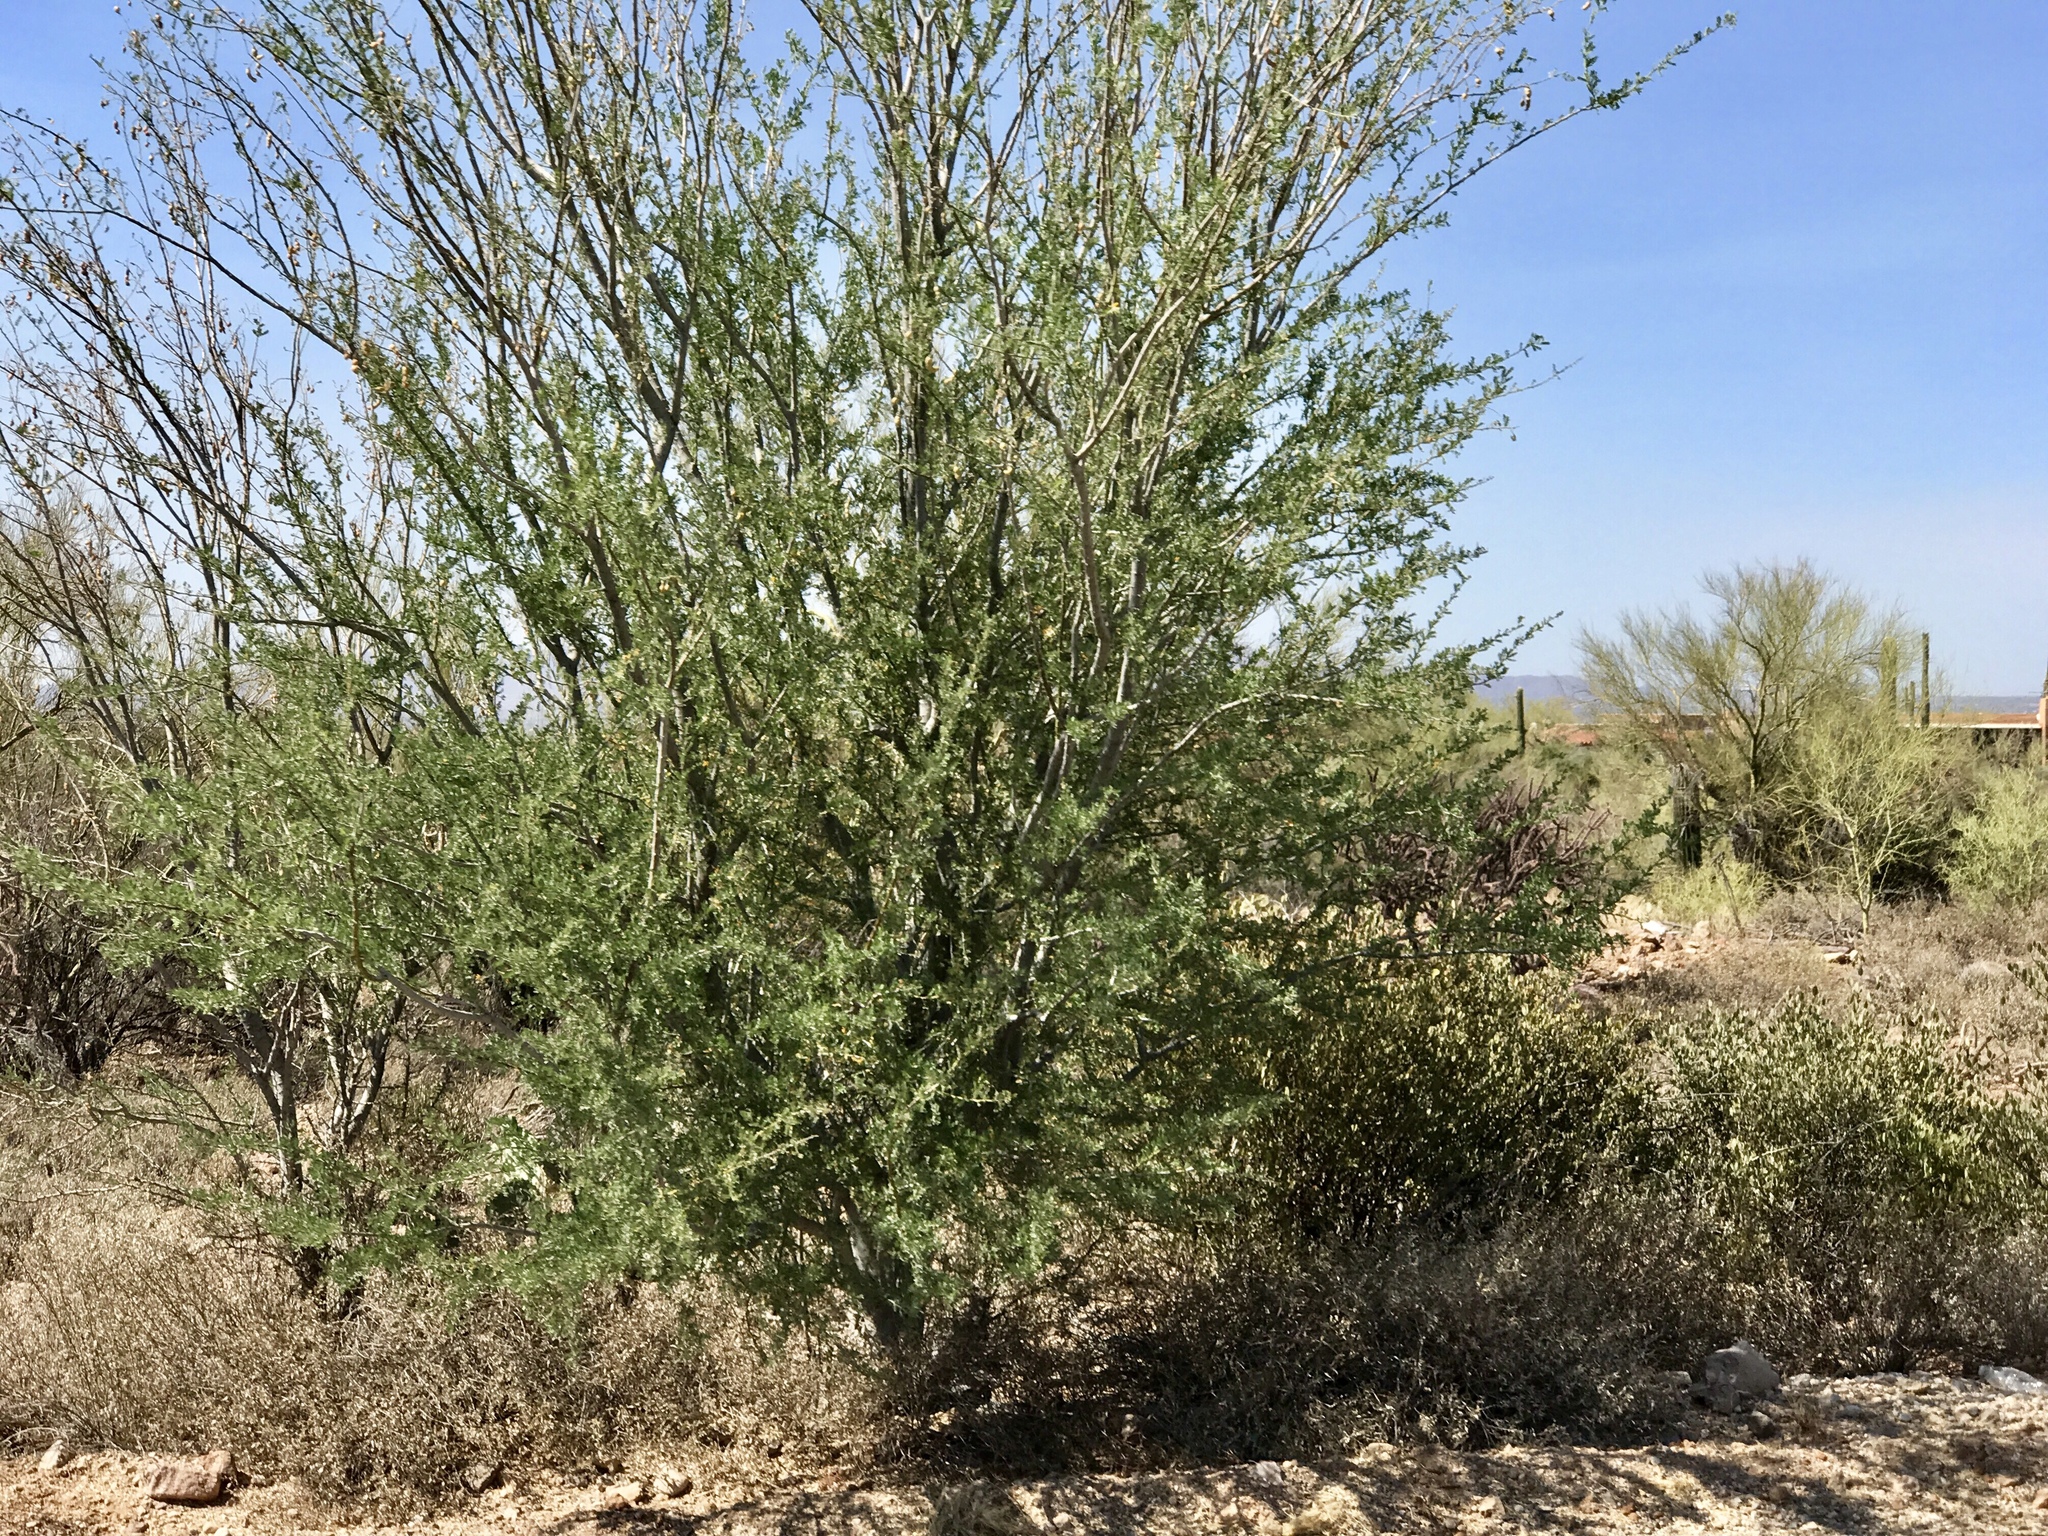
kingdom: Plantae
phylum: Tracheophyta
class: Magnoliopsida
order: Fabales
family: Fabaceae
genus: Olneya
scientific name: Olneya tesota
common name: Desert ironwood
